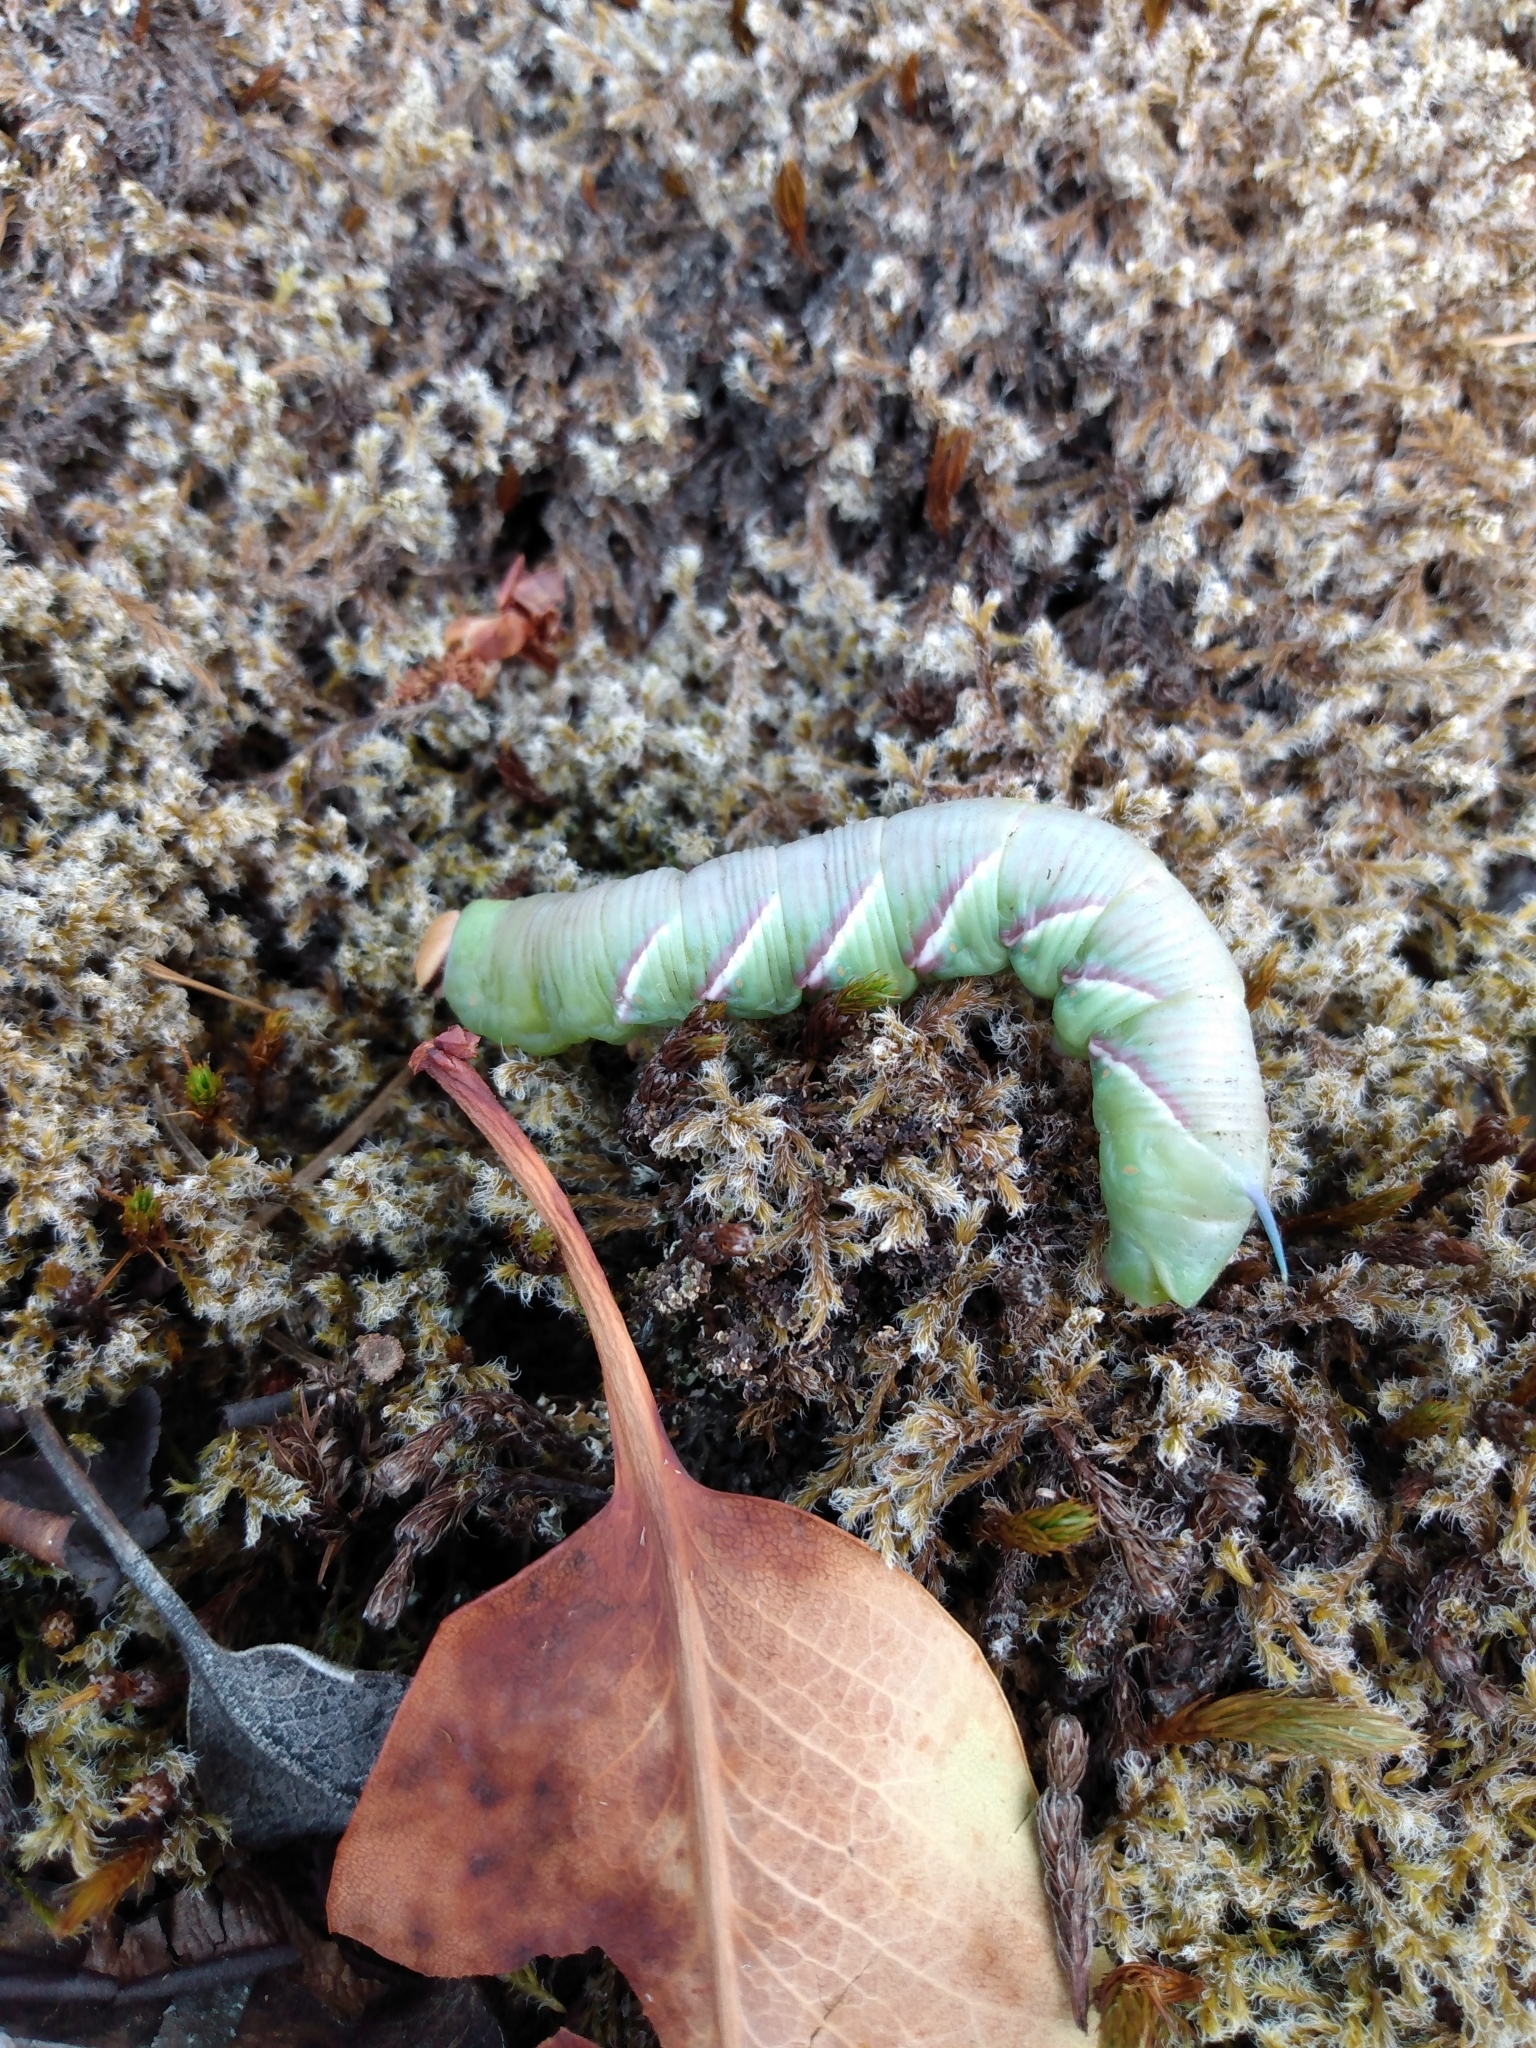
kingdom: Animalia
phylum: Arthropoda
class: Insecta
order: Lepidoptera
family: Sphingidae
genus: Sphinx
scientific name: Sphinx perelegans
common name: Elegant sphinx
